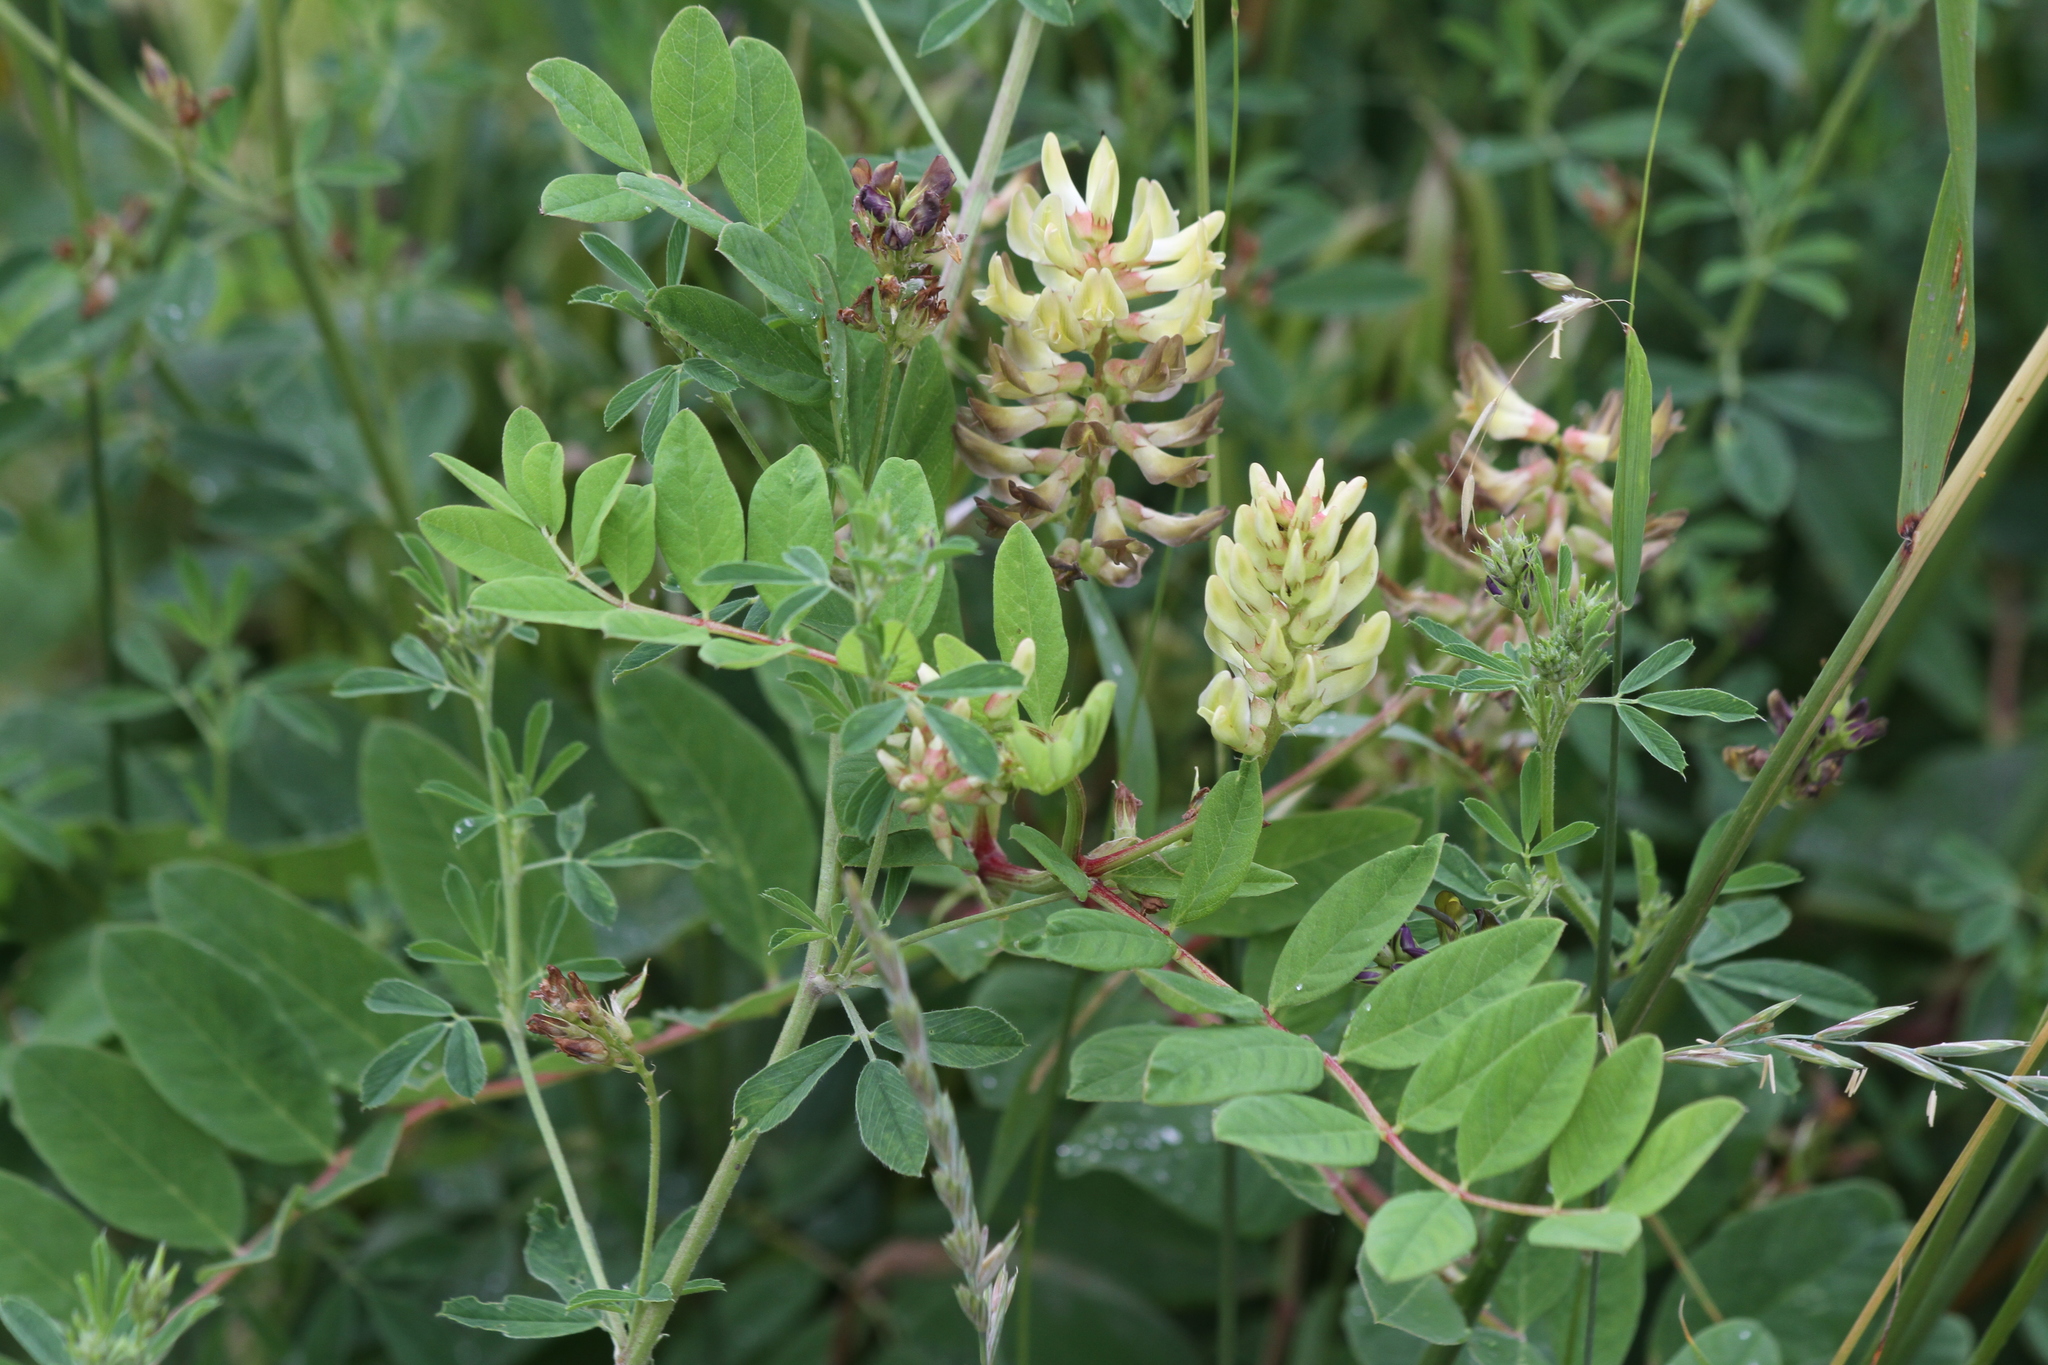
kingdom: Plantae
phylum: Tracheophyta
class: Magnoliopsida
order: Fabales
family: Fabaceae
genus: Astragalus
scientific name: Astragalus glycyphyllos
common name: Wild liquorice
